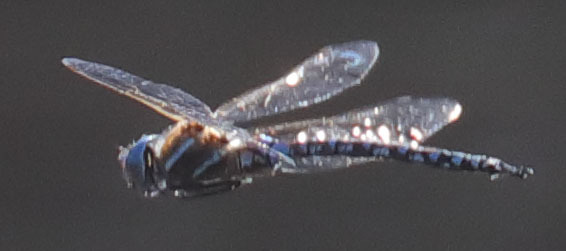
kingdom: Animalia
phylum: Arthropoda
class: Insecta
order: Odonata
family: Aeshnidae
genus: Rhionaeschna
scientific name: Rhionaeschna multicolor
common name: Blue-eyed darner
